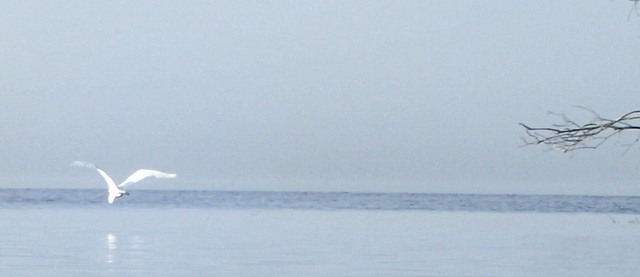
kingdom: Animalia
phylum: Chordata
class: Aves
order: Pelecaniformes
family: Ardeidae
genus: Ardea
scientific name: Ardea alba
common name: Great egret
